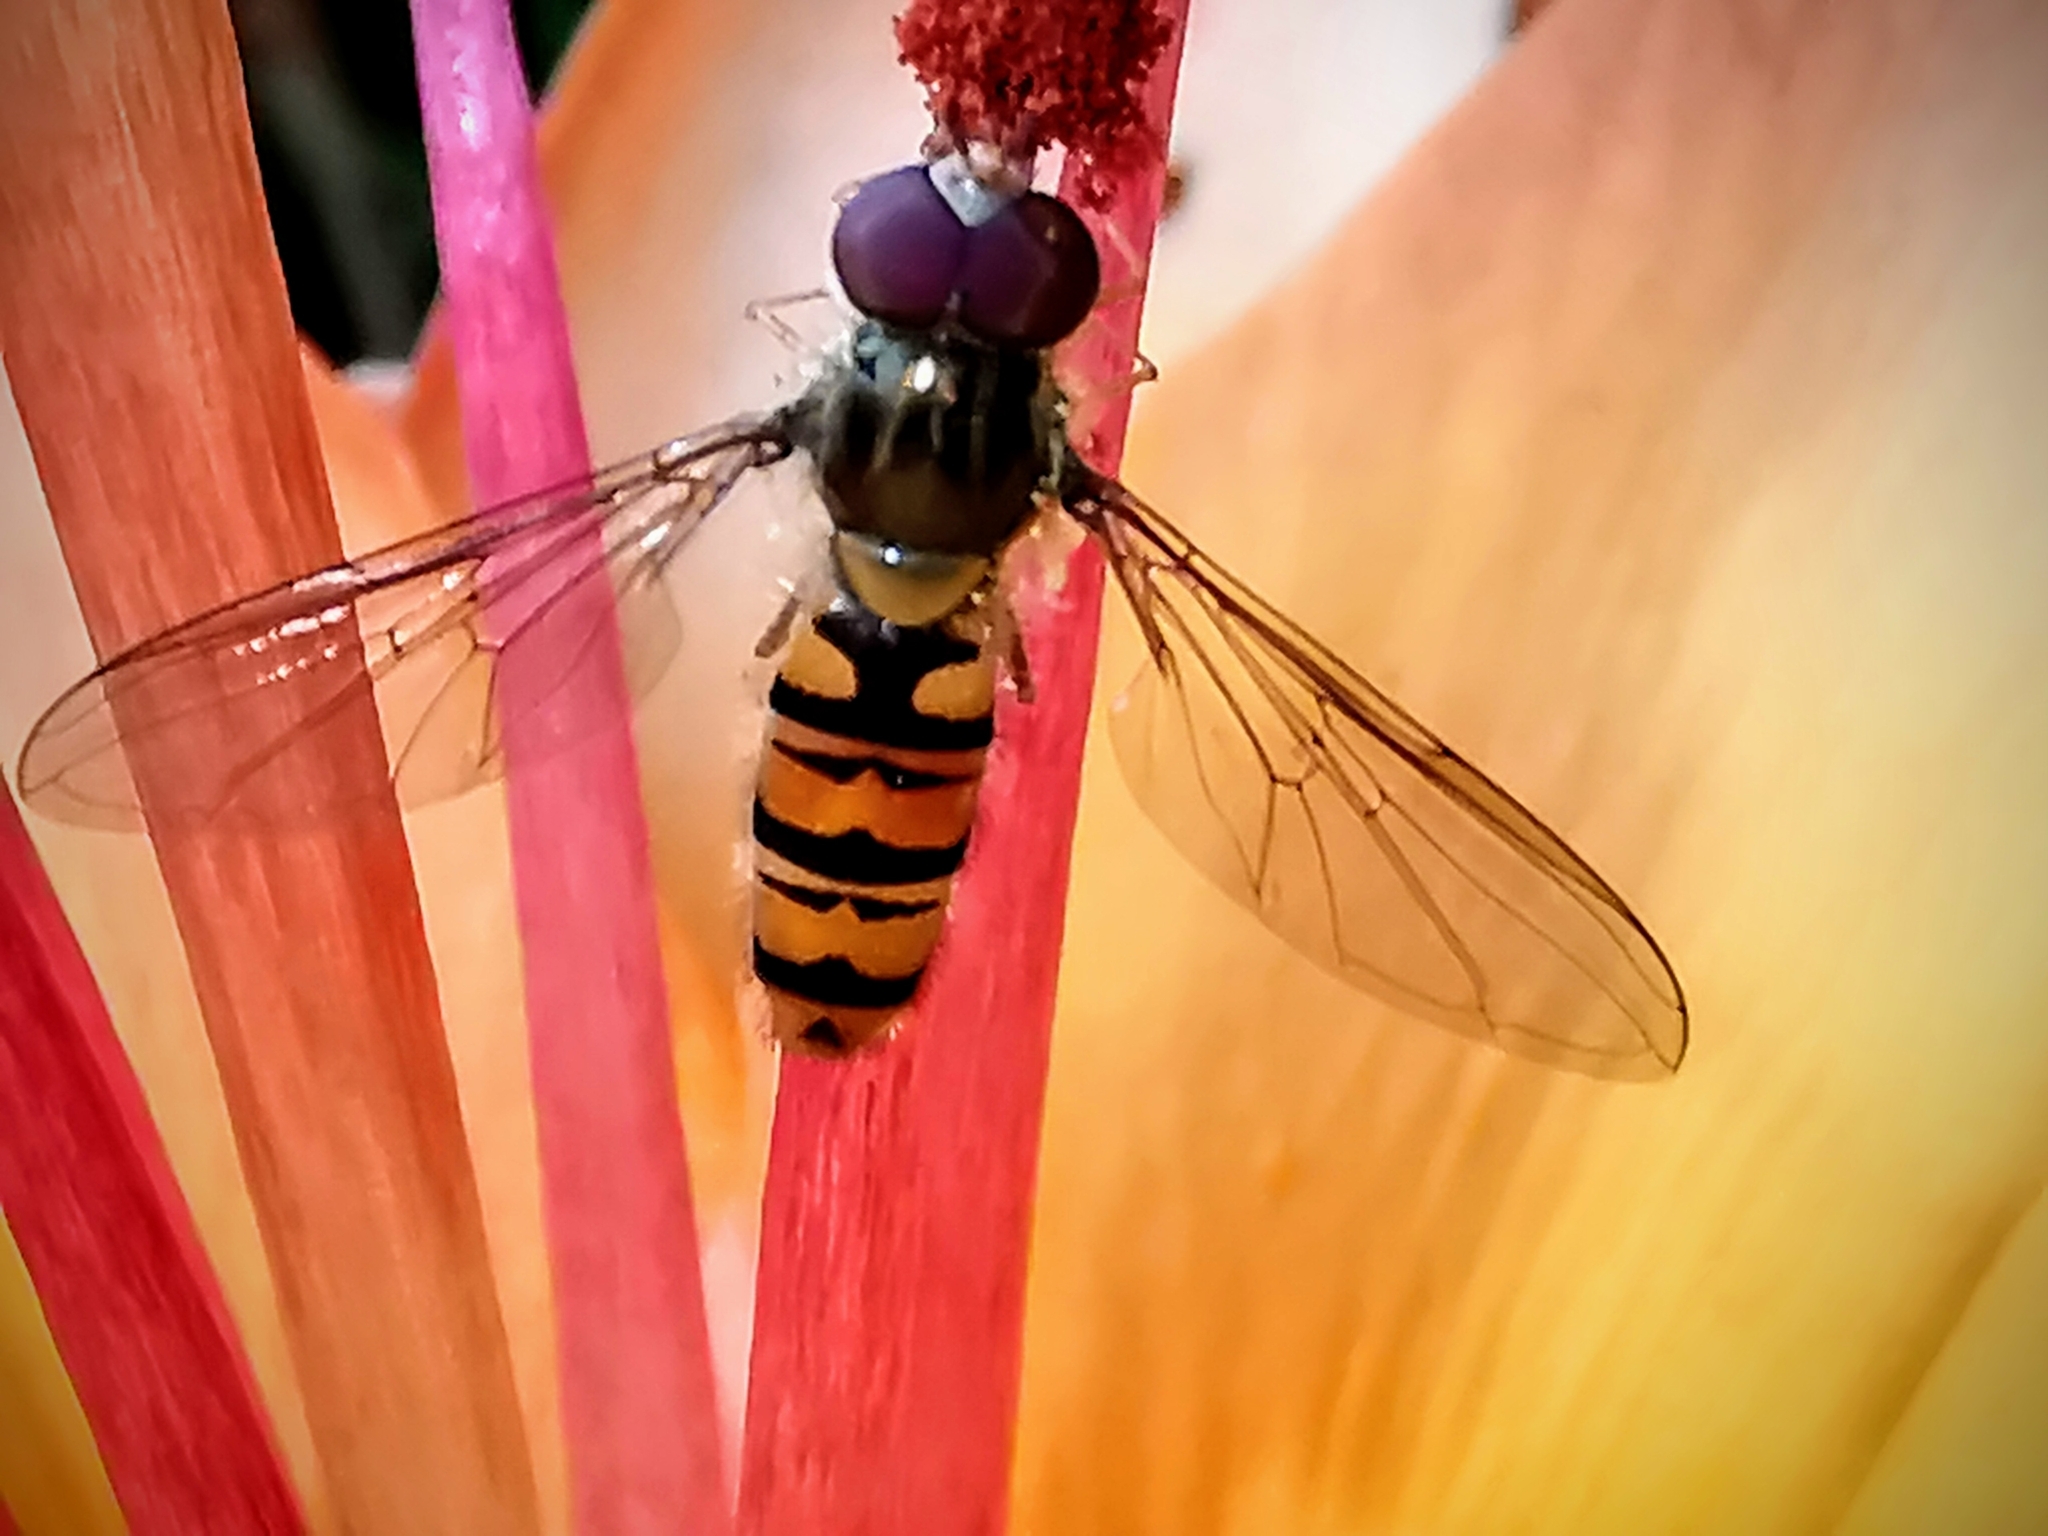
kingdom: Animalia
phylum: Arthropoda
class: Insecta
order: Diptera
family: Syrphidae
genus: Episyrphus
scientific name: Episyrphus balteatus
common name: Marmalade hoverfly
